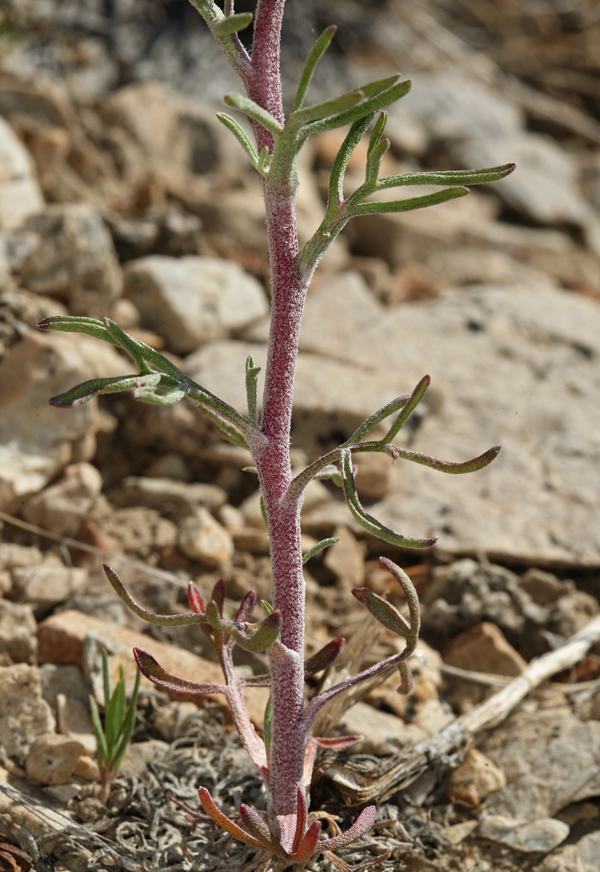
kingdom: Plantae
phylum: Tracheophyta
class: Magnoliopsida
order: Asterales
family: Asteraceae
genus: Hymenoxys
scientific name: Hymenoxys cooperi
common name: Cooper's bitterweed
